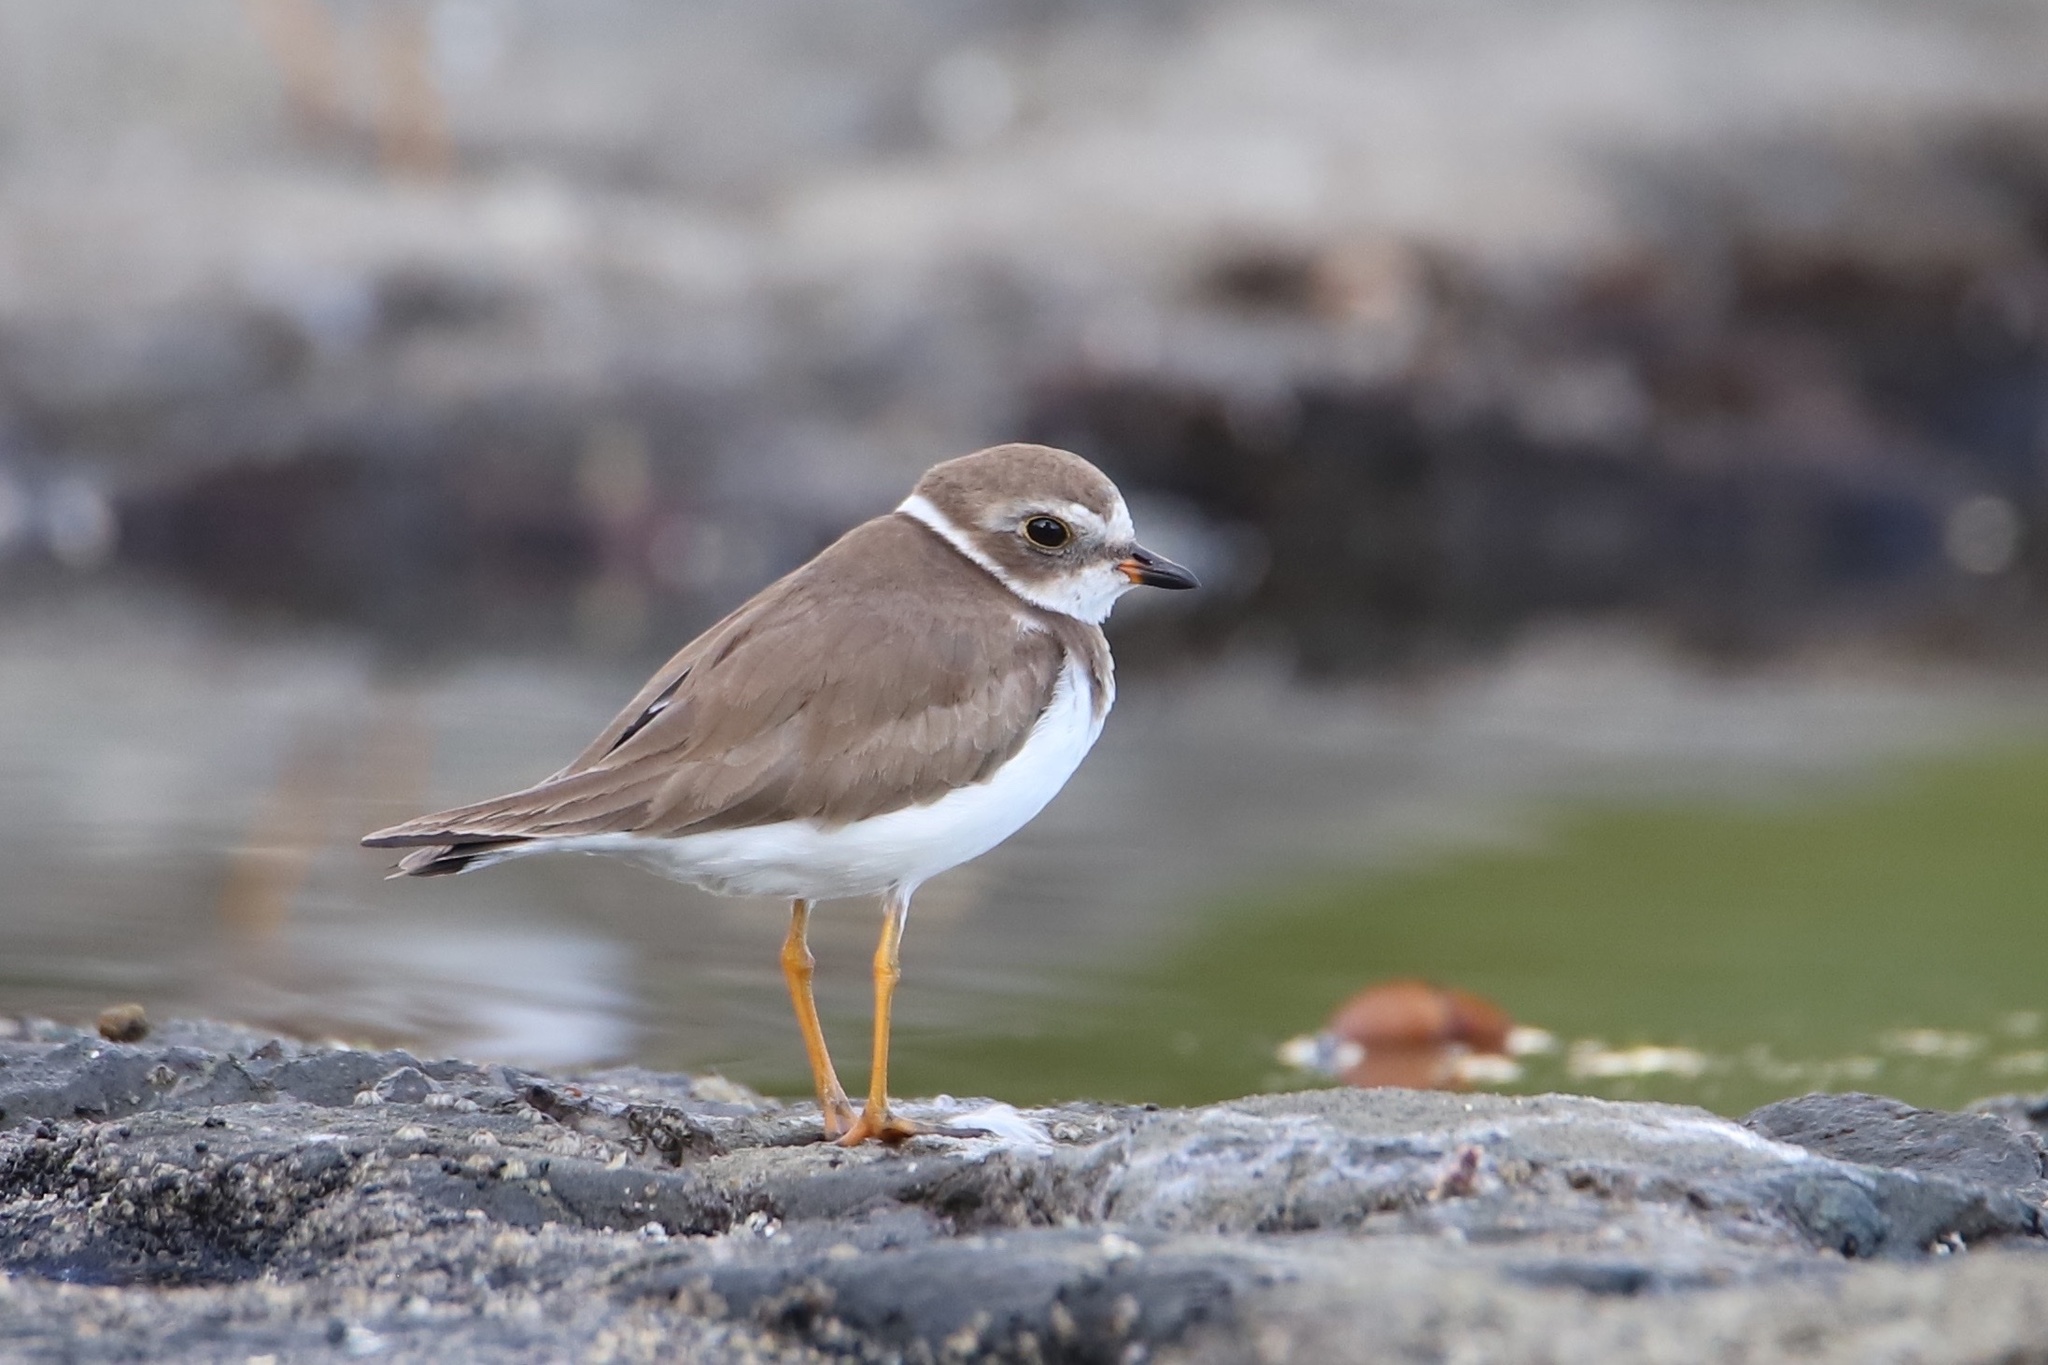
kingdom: Animalia
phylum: Chordata
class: Aves
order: Charadriiformes
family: Charadriidae
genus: Charadrius
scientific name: Charadrius semipalmatus
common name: Semipalmated plover
